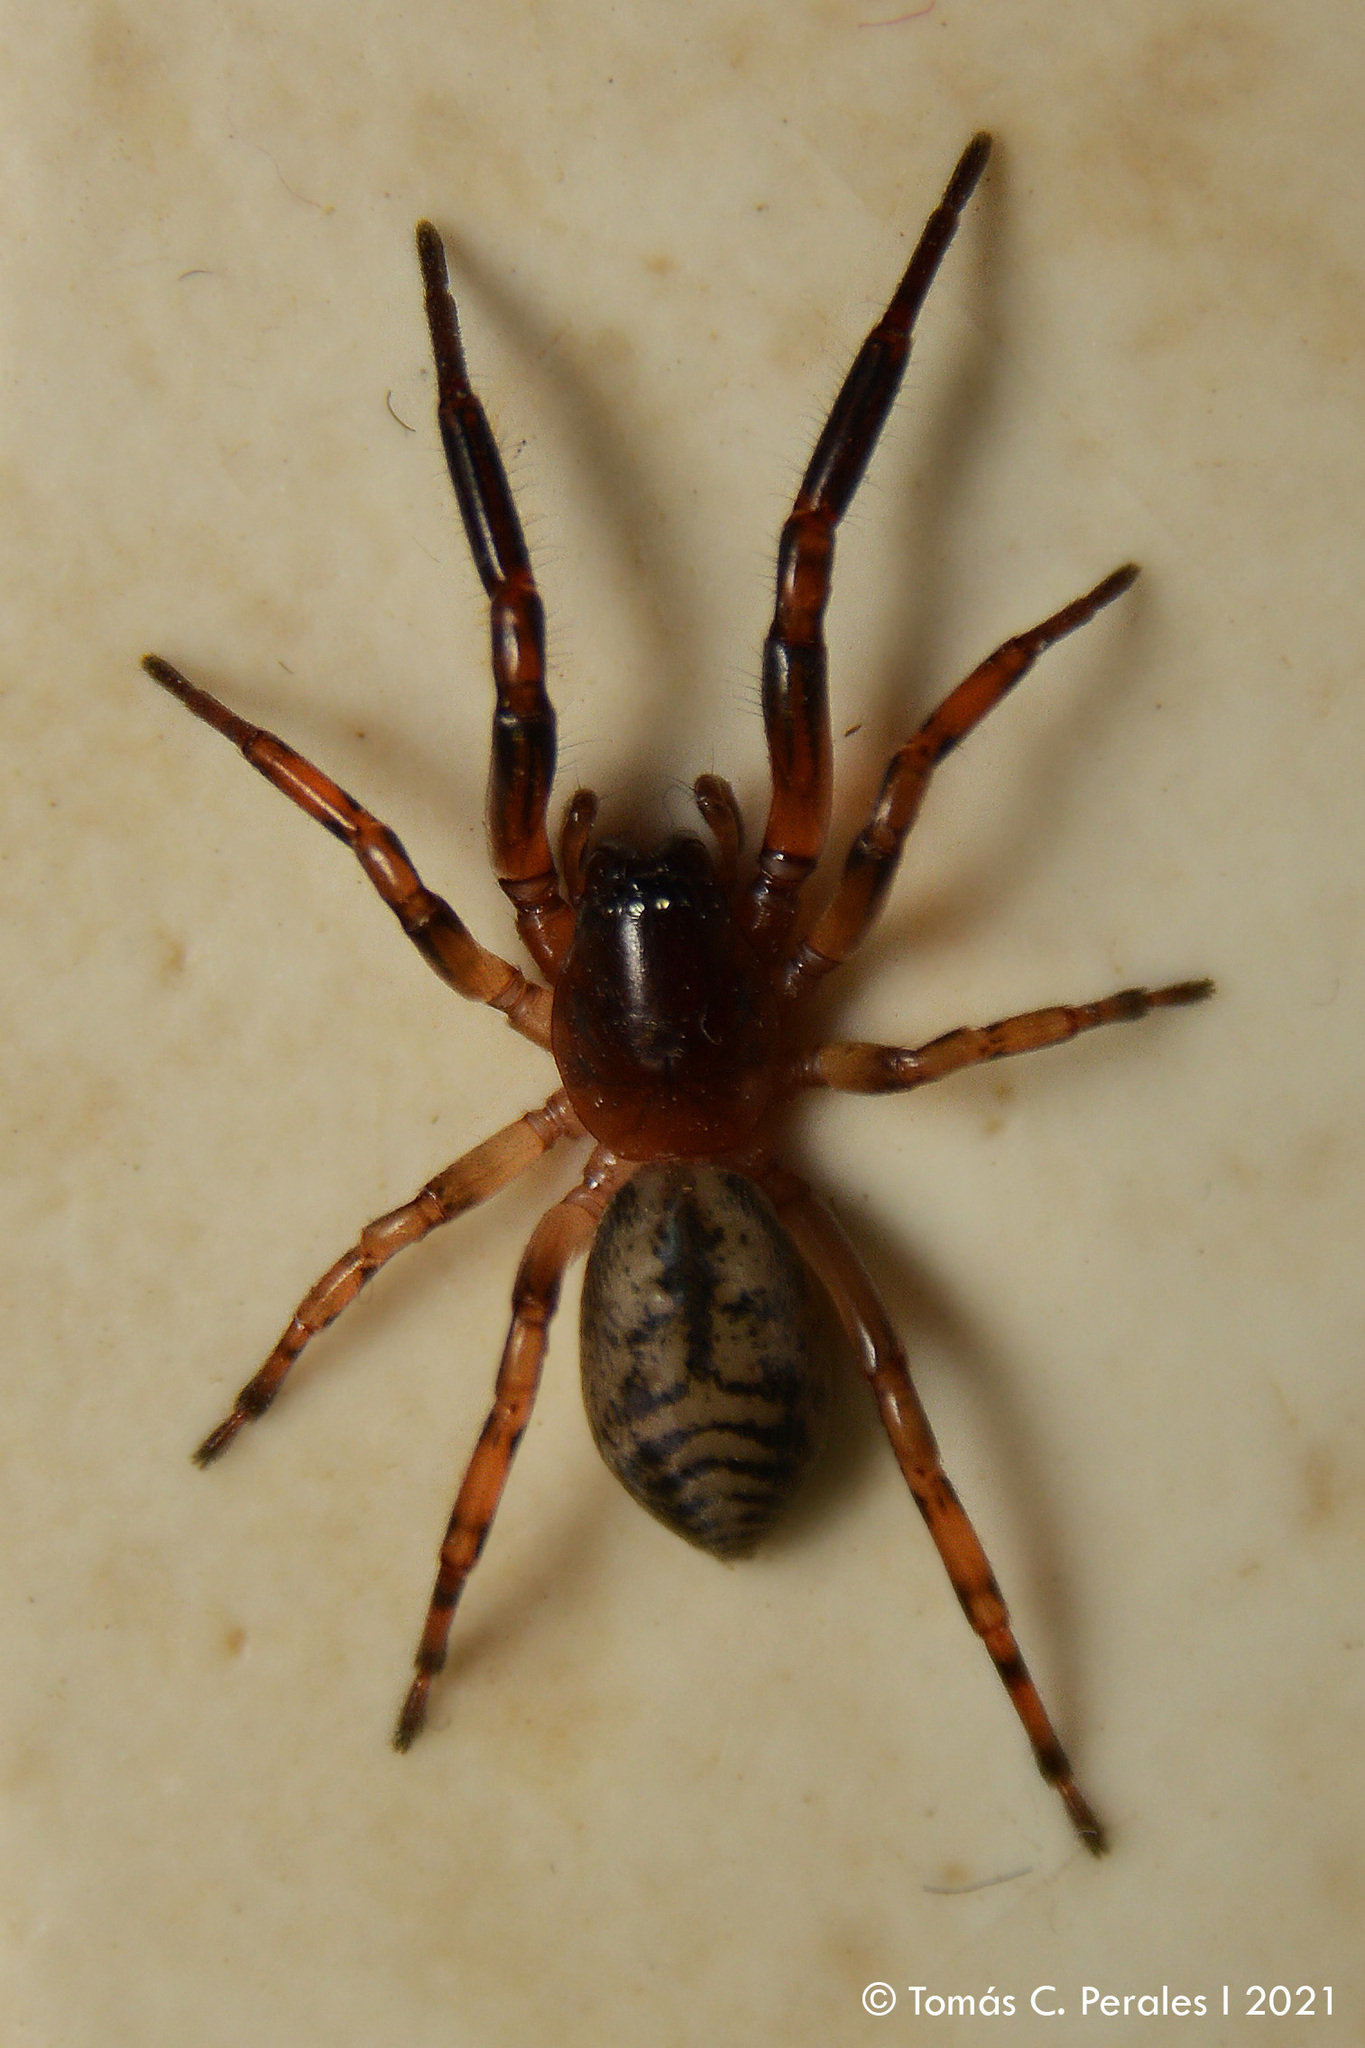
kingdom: Animalia
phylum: Arthropoda
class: Arachnida
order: Araneae
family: Trachelidae
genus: Meriola
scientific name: Meriola
